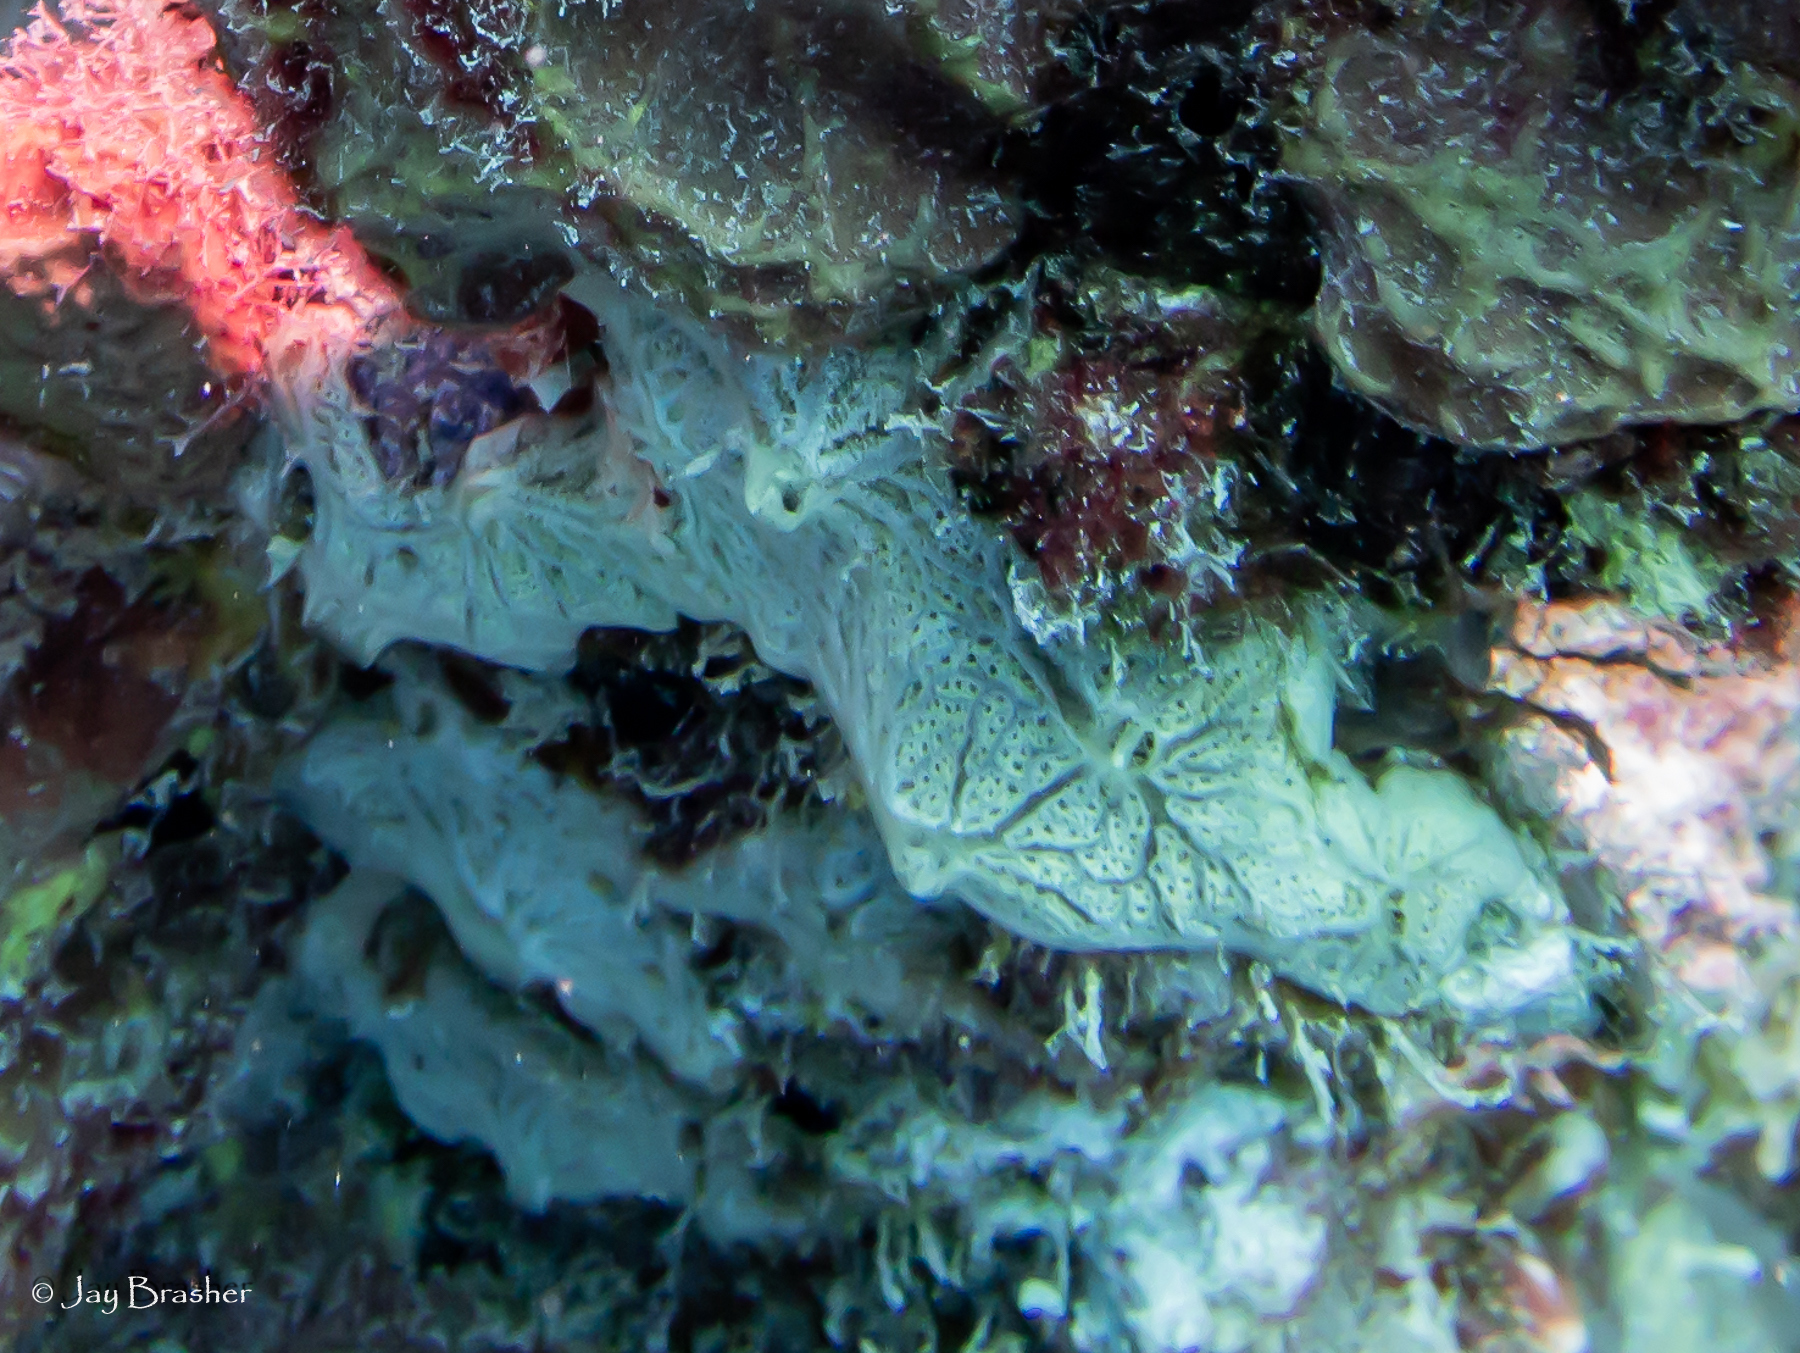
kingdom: Animalia
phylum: Porifera
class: Demospongiae
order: Poecilosclerida
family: Microcionidae
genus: Clathria
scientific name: Clathria curacaoensis
